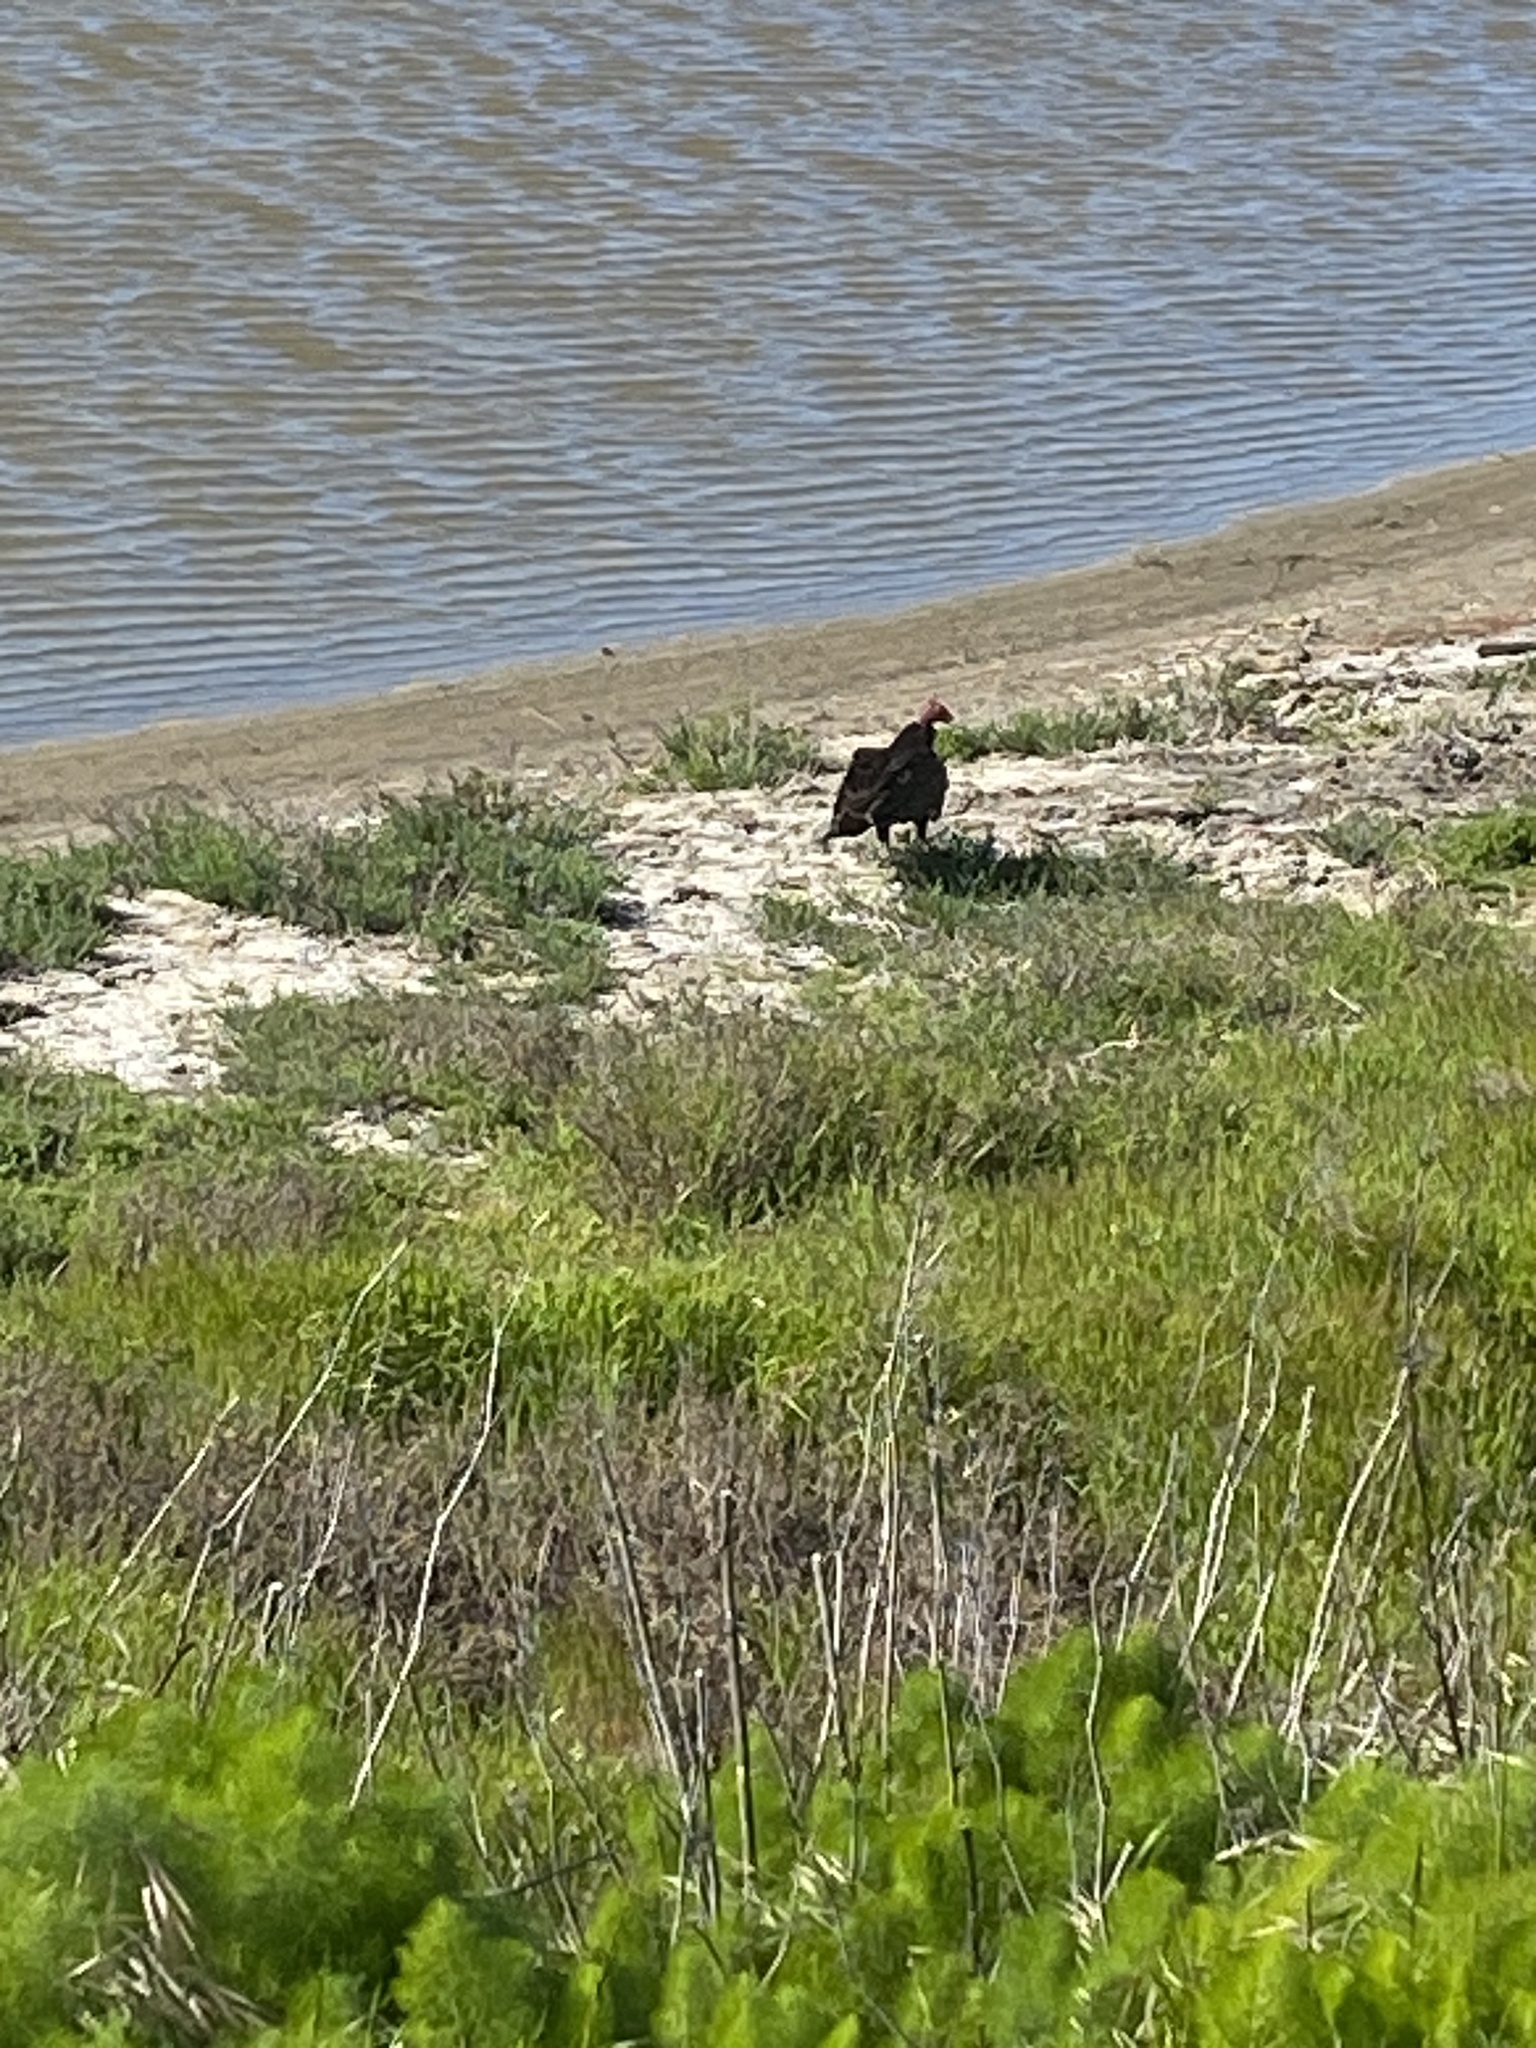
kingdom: Animalia
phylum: Chordata
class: Aves
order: Accipitriformes
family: Cathartidae
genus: Cathartes
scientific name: Cathartes aura
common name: Turkey vulture
